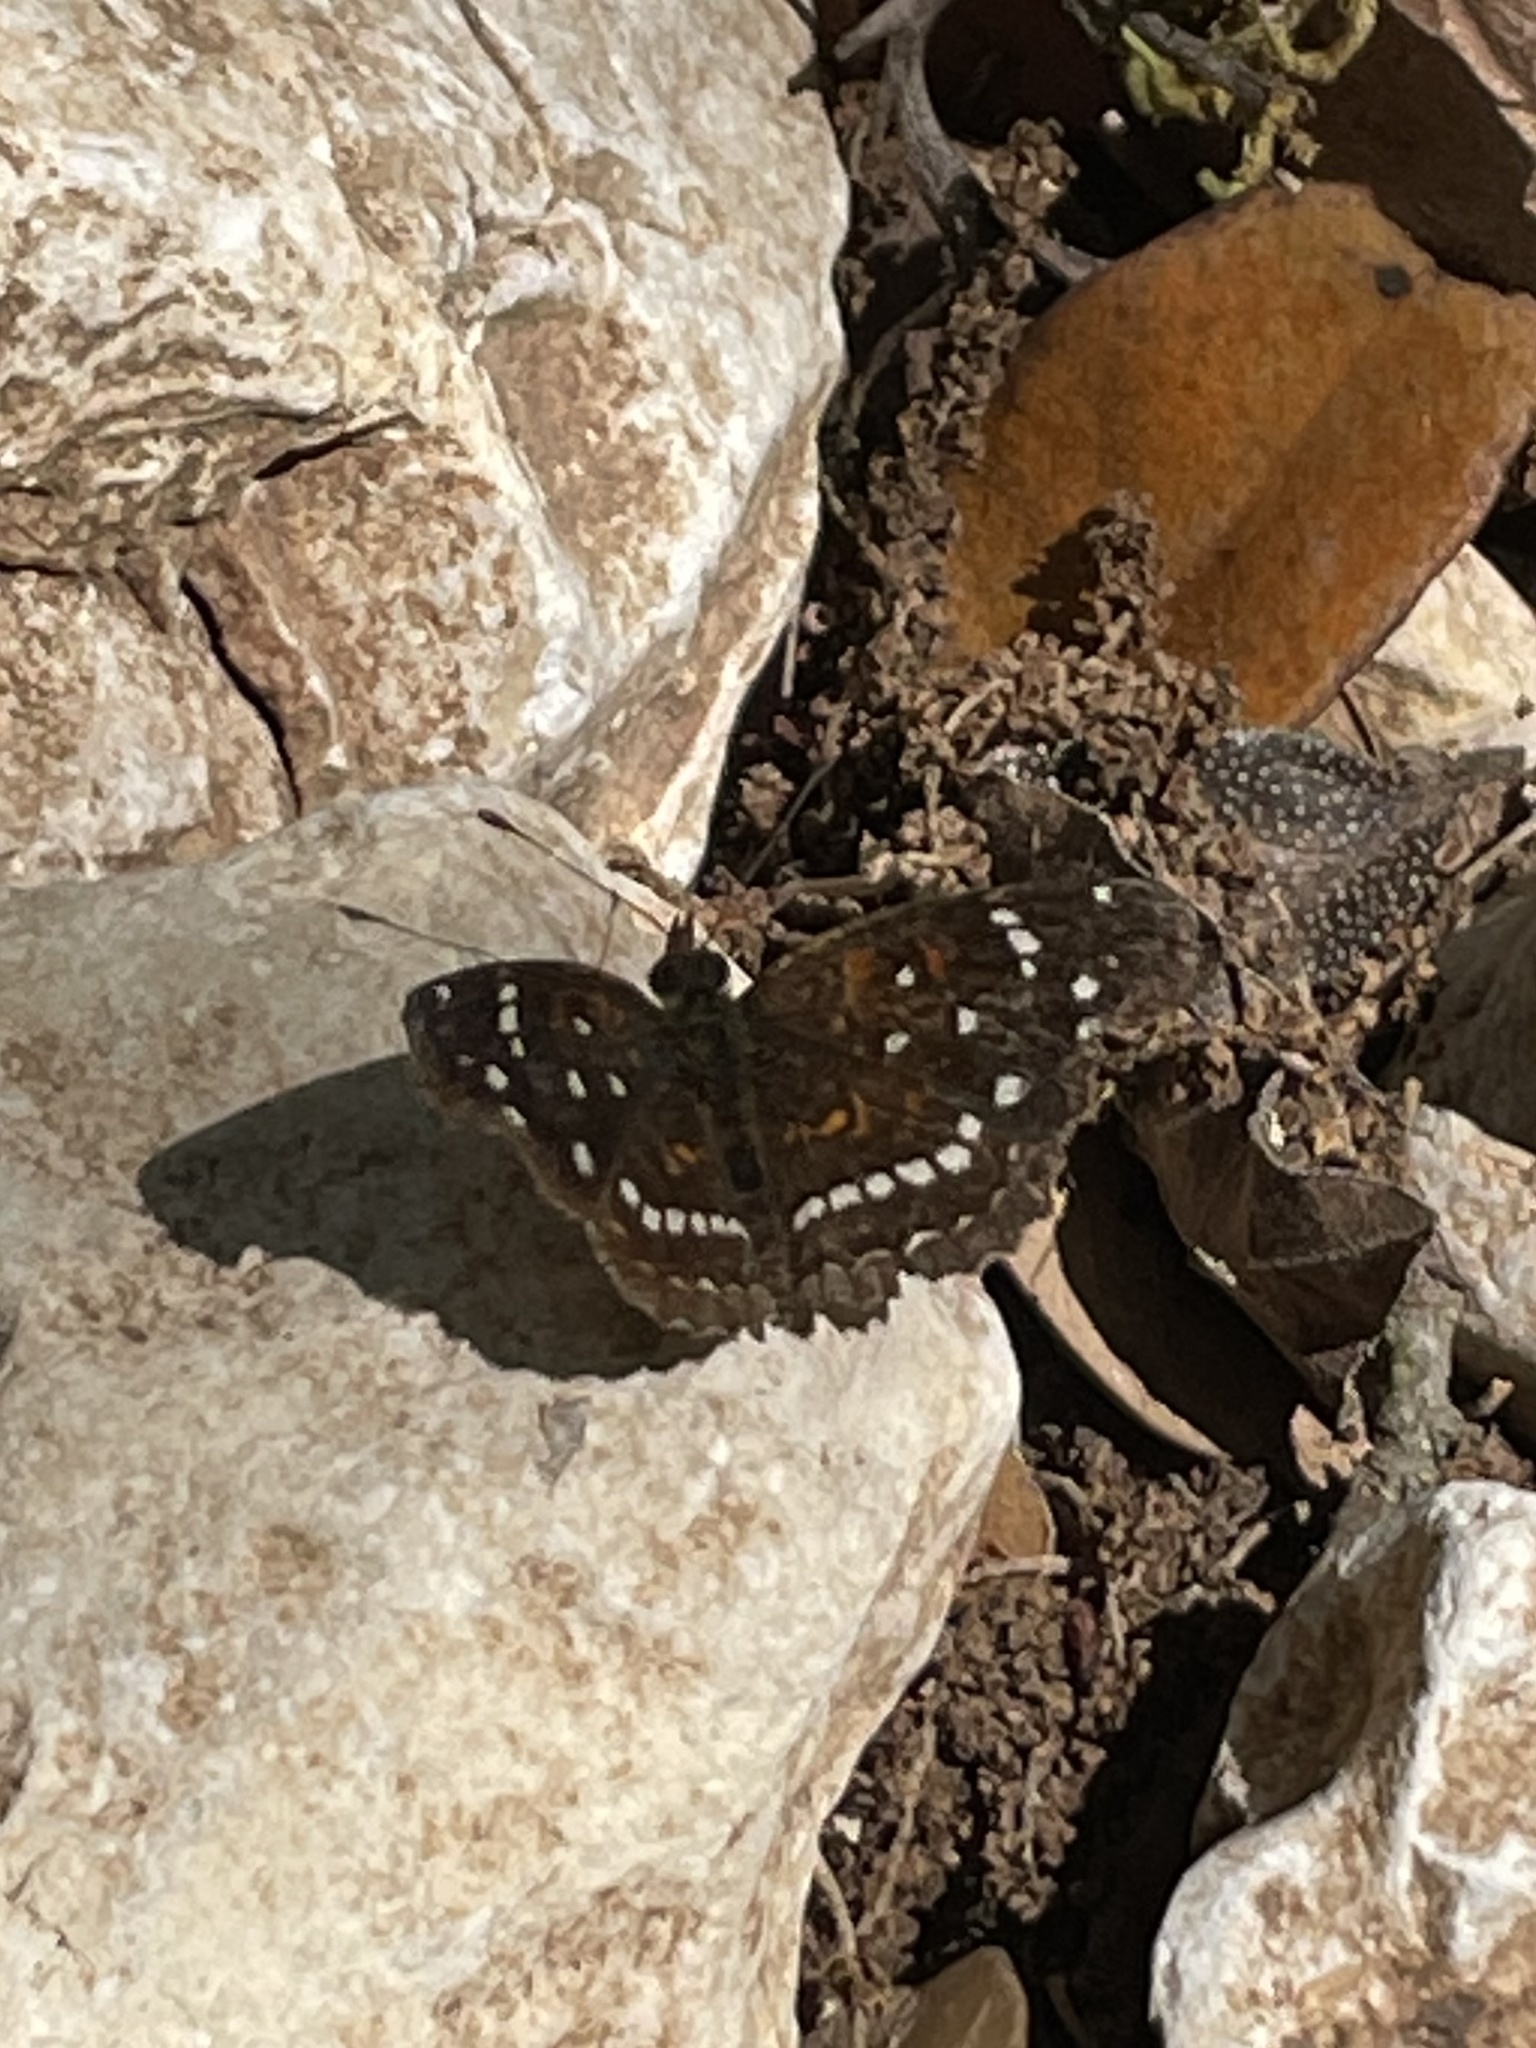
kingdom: Animalia
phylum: Arthropoda
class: Insecta
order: Lepidoptera
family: Nymphalidae
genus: Anthanassa
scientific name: Anthanassa texana
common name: Texan crescent
